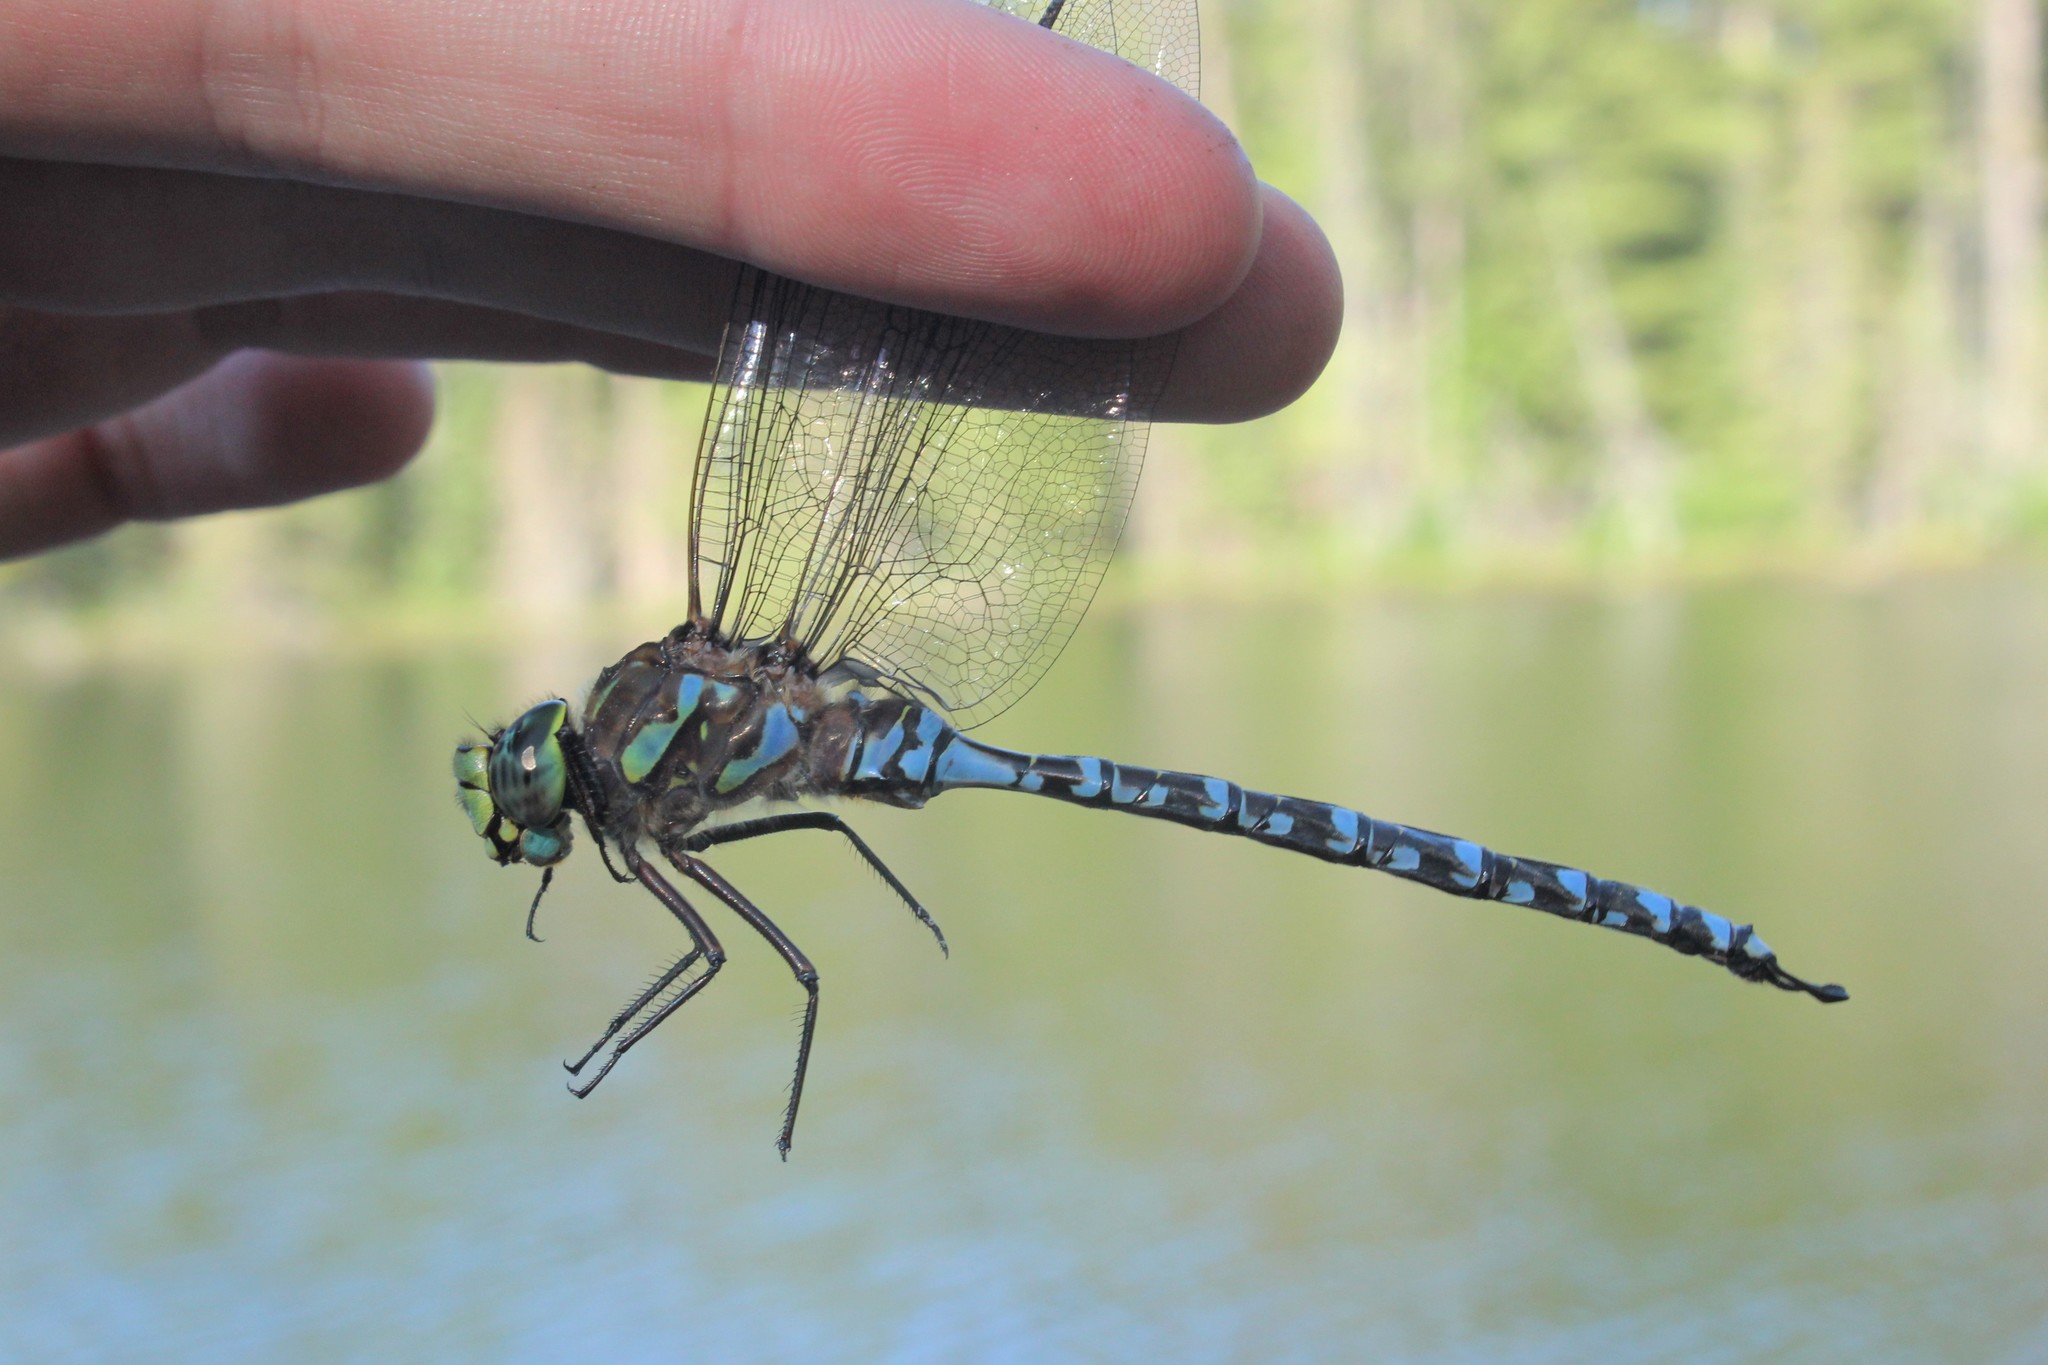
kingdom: Animalia
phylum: Arthropoda
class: Insecta
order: Odonata
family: Aeshnidae
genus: Aeshna
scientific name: Aeshna eremita
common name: Lake darner
